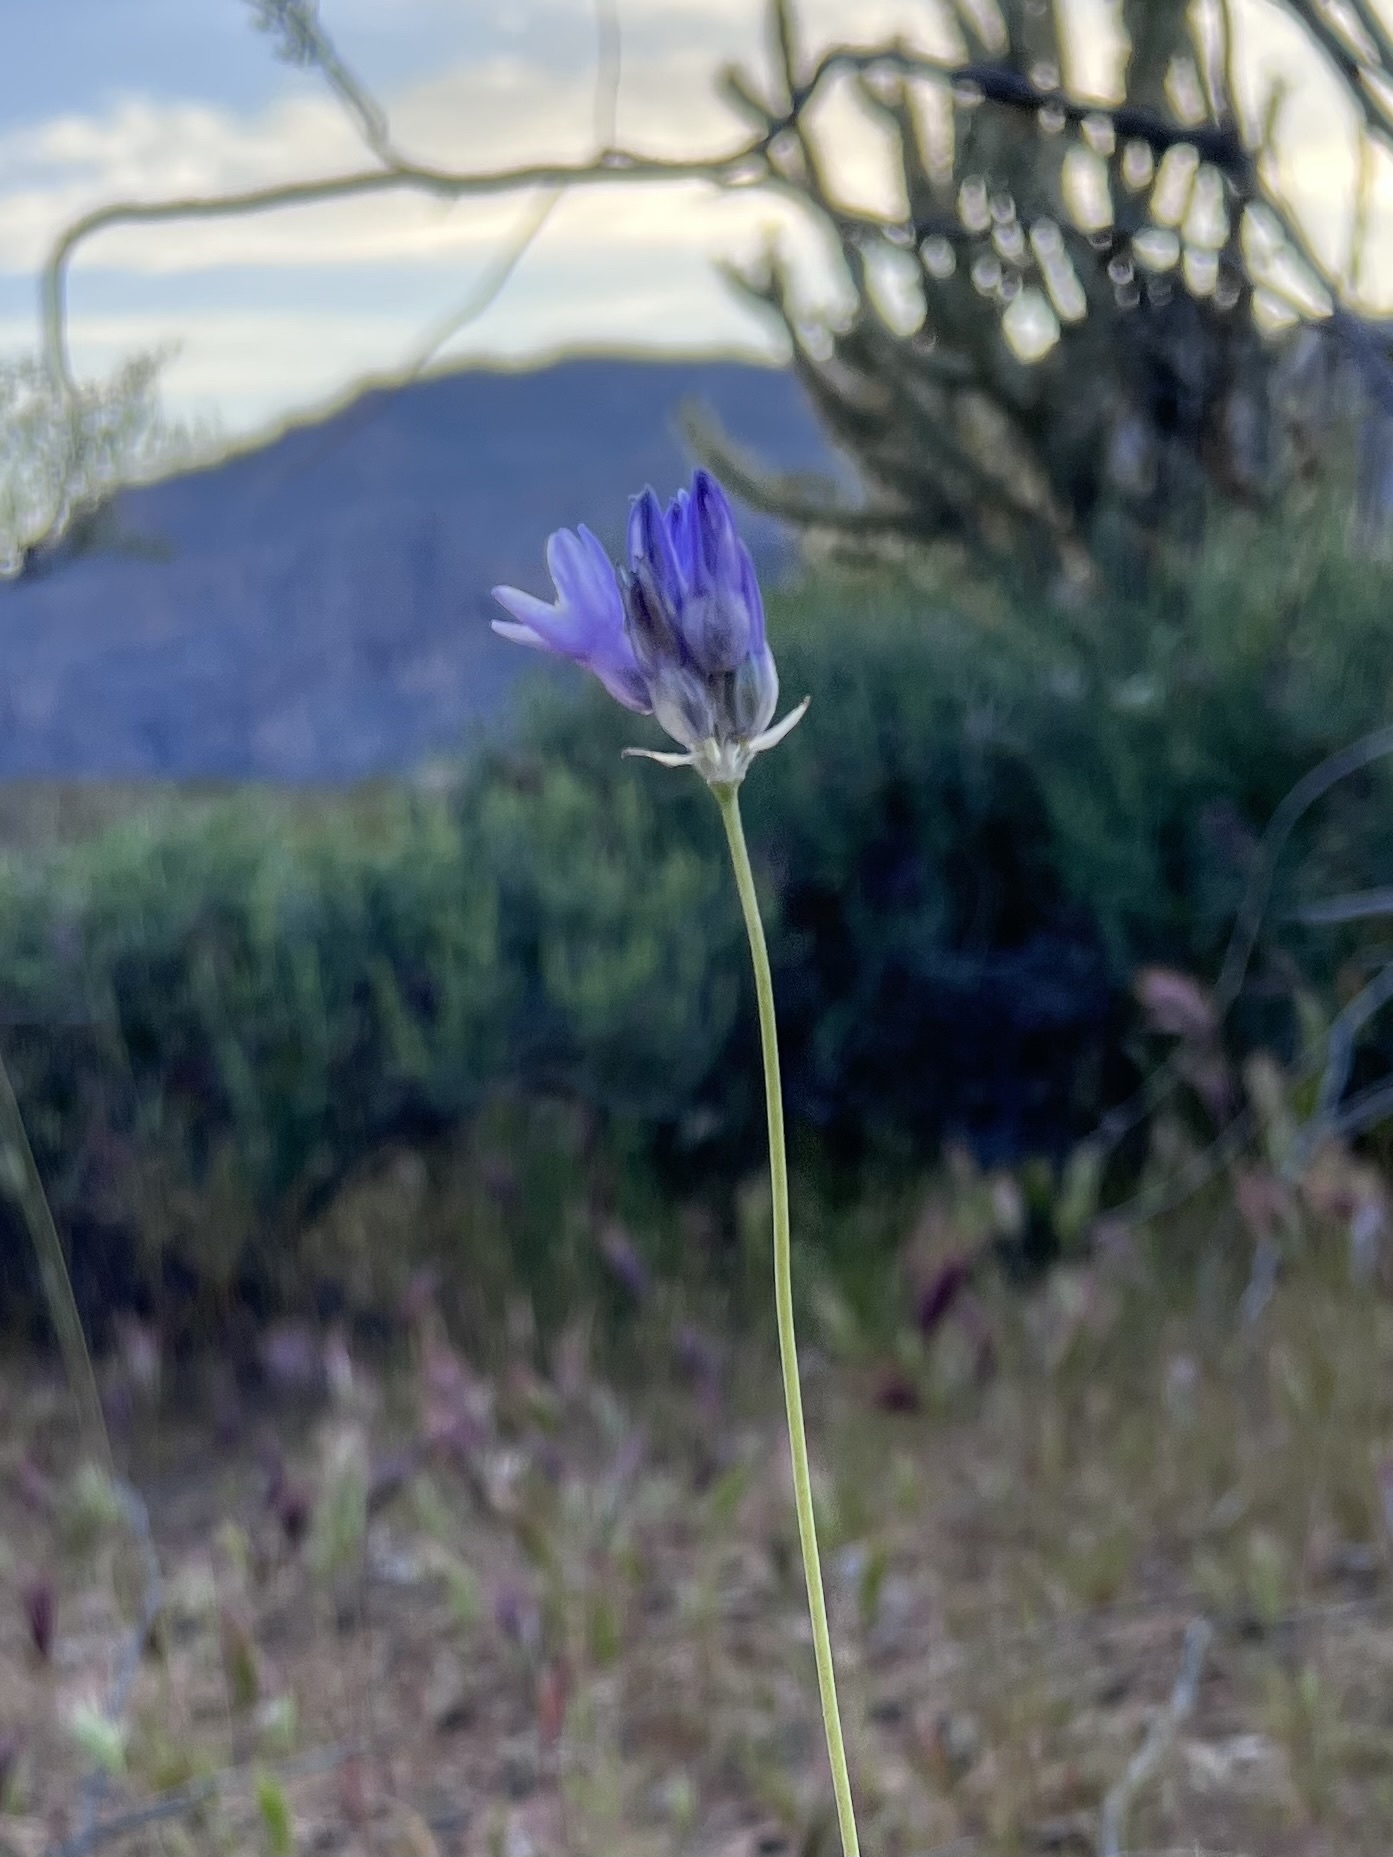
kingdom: Plantae
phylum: Tracheophyta
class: Liliopsida
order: Asparagales
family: Asparagaceae
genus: Dipterostemon
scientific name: Dipterostemon capitatus
